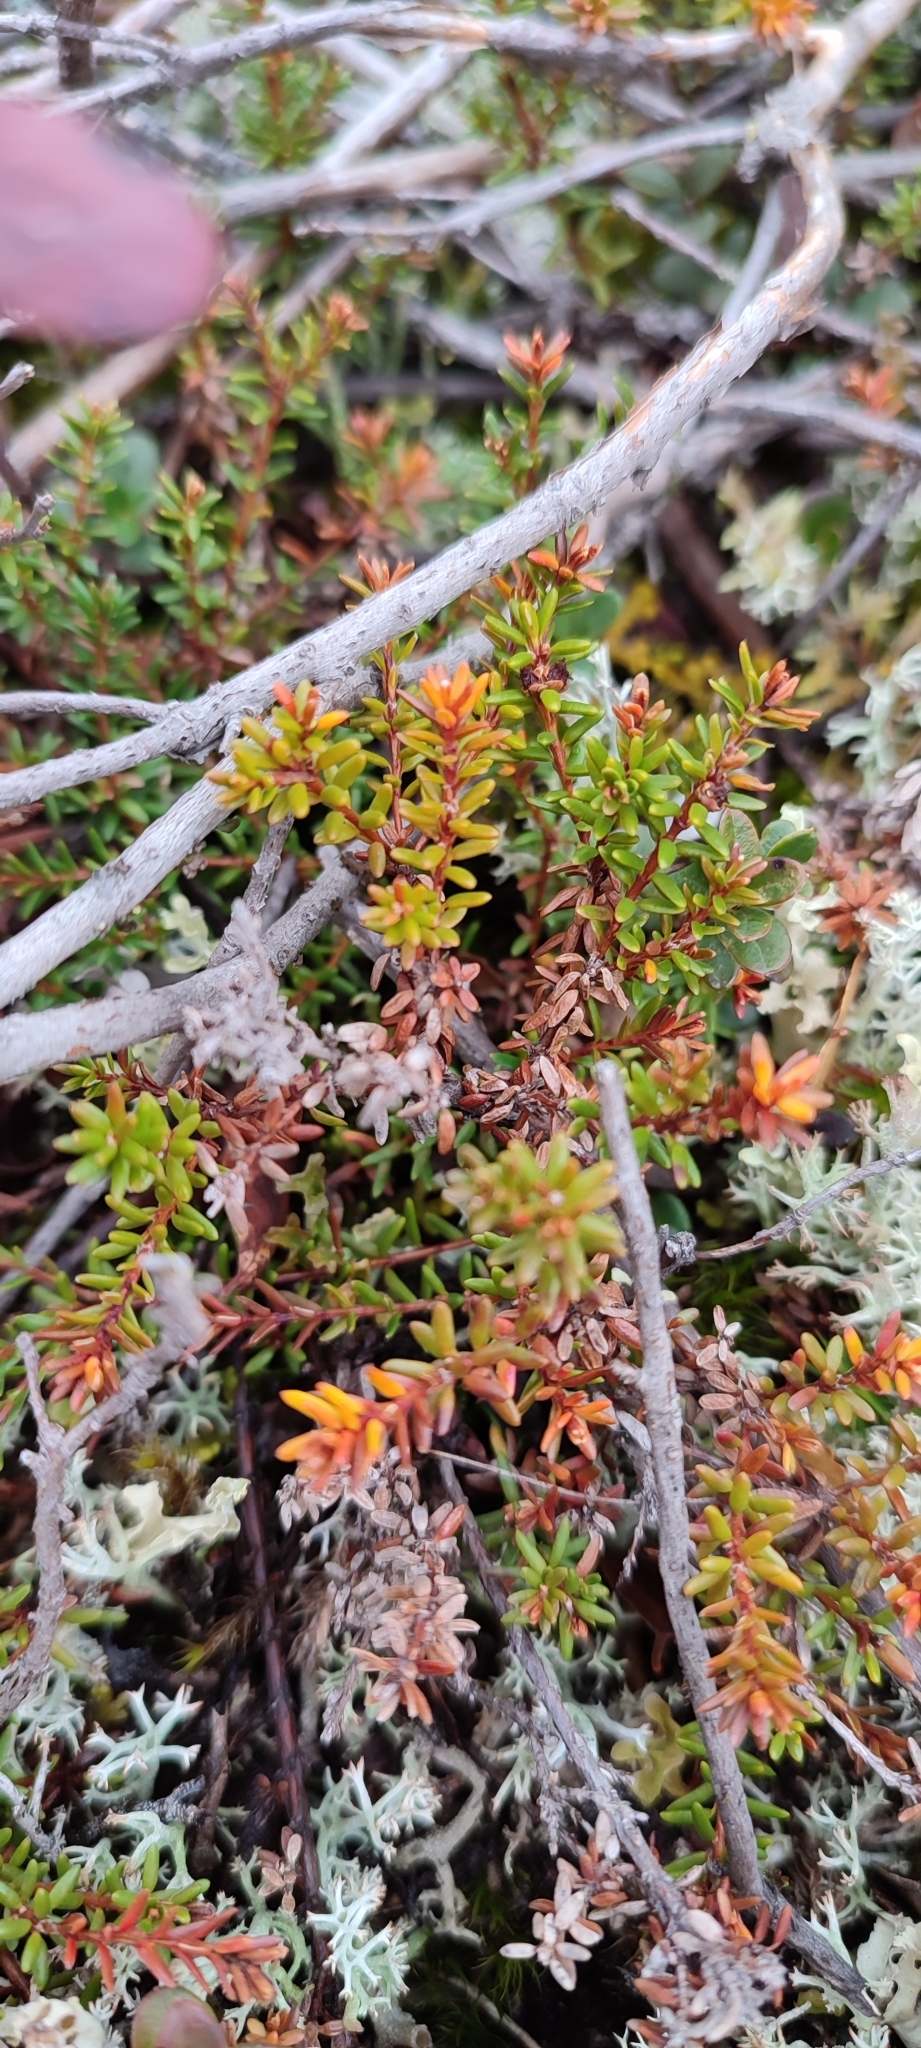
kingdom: Plantae
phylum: Tracheophyta
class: Magnoliopsida
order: Ericales
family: Ericaceae
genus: Empetrum
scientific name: Empetrum nigrum
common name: Black crowberry
